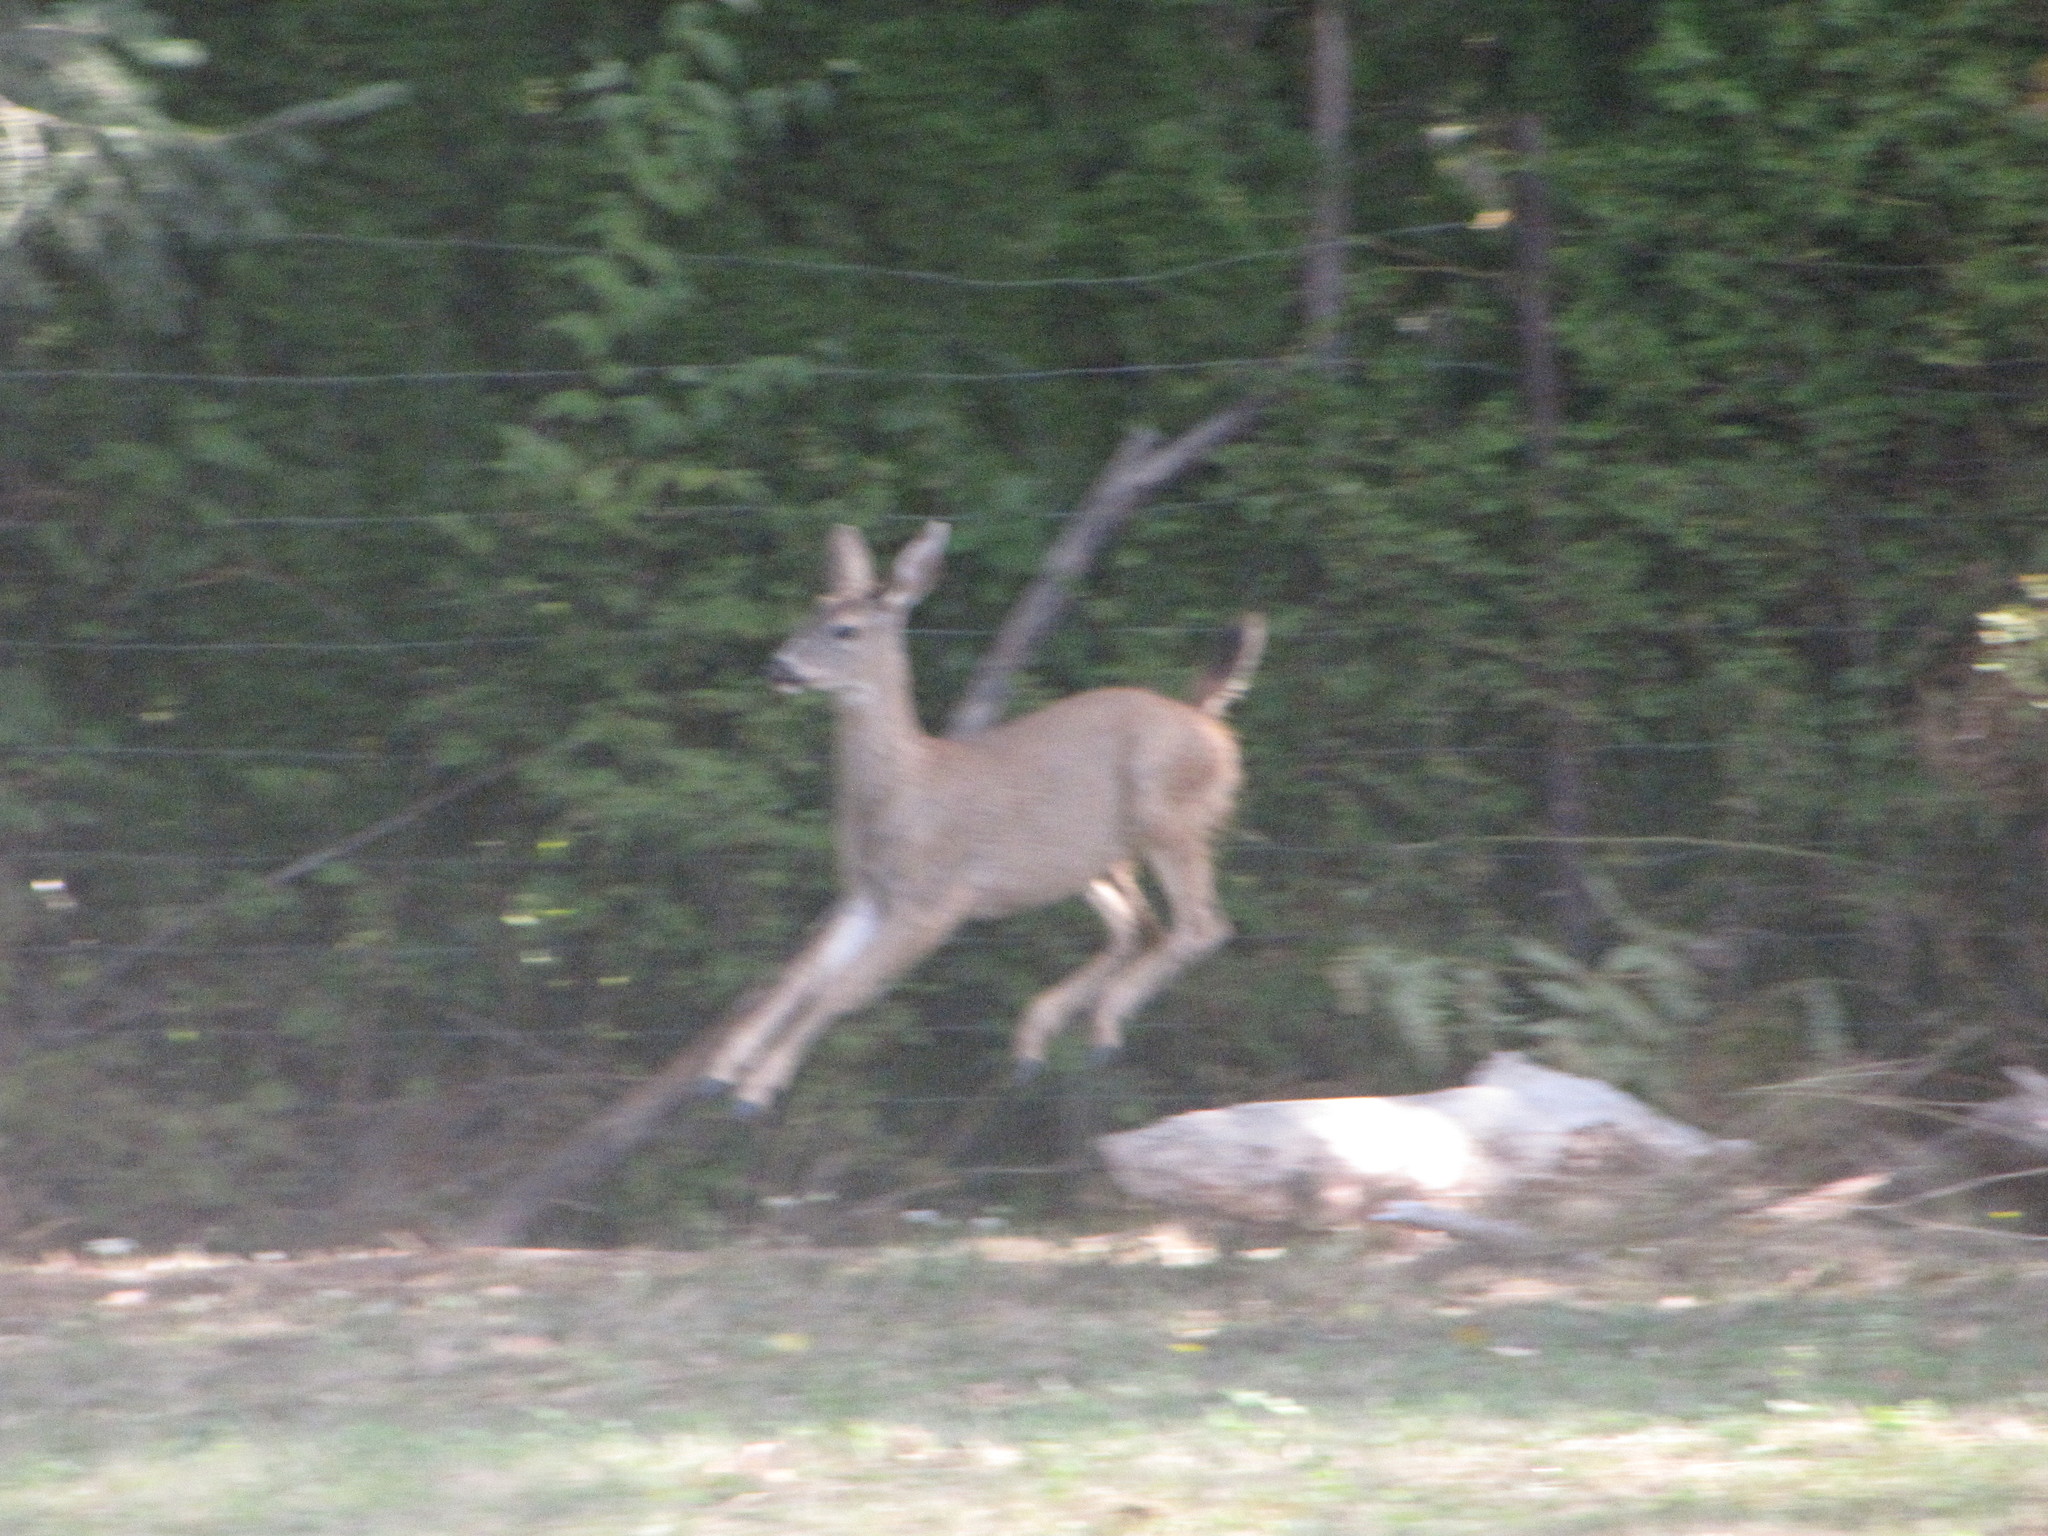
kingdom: Animalia
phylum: Chordata
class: Mammalia
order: Artiodactyla
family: Cervidae
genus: Odocoileus
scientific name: Odocoileus hemionus
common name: Mule deer
